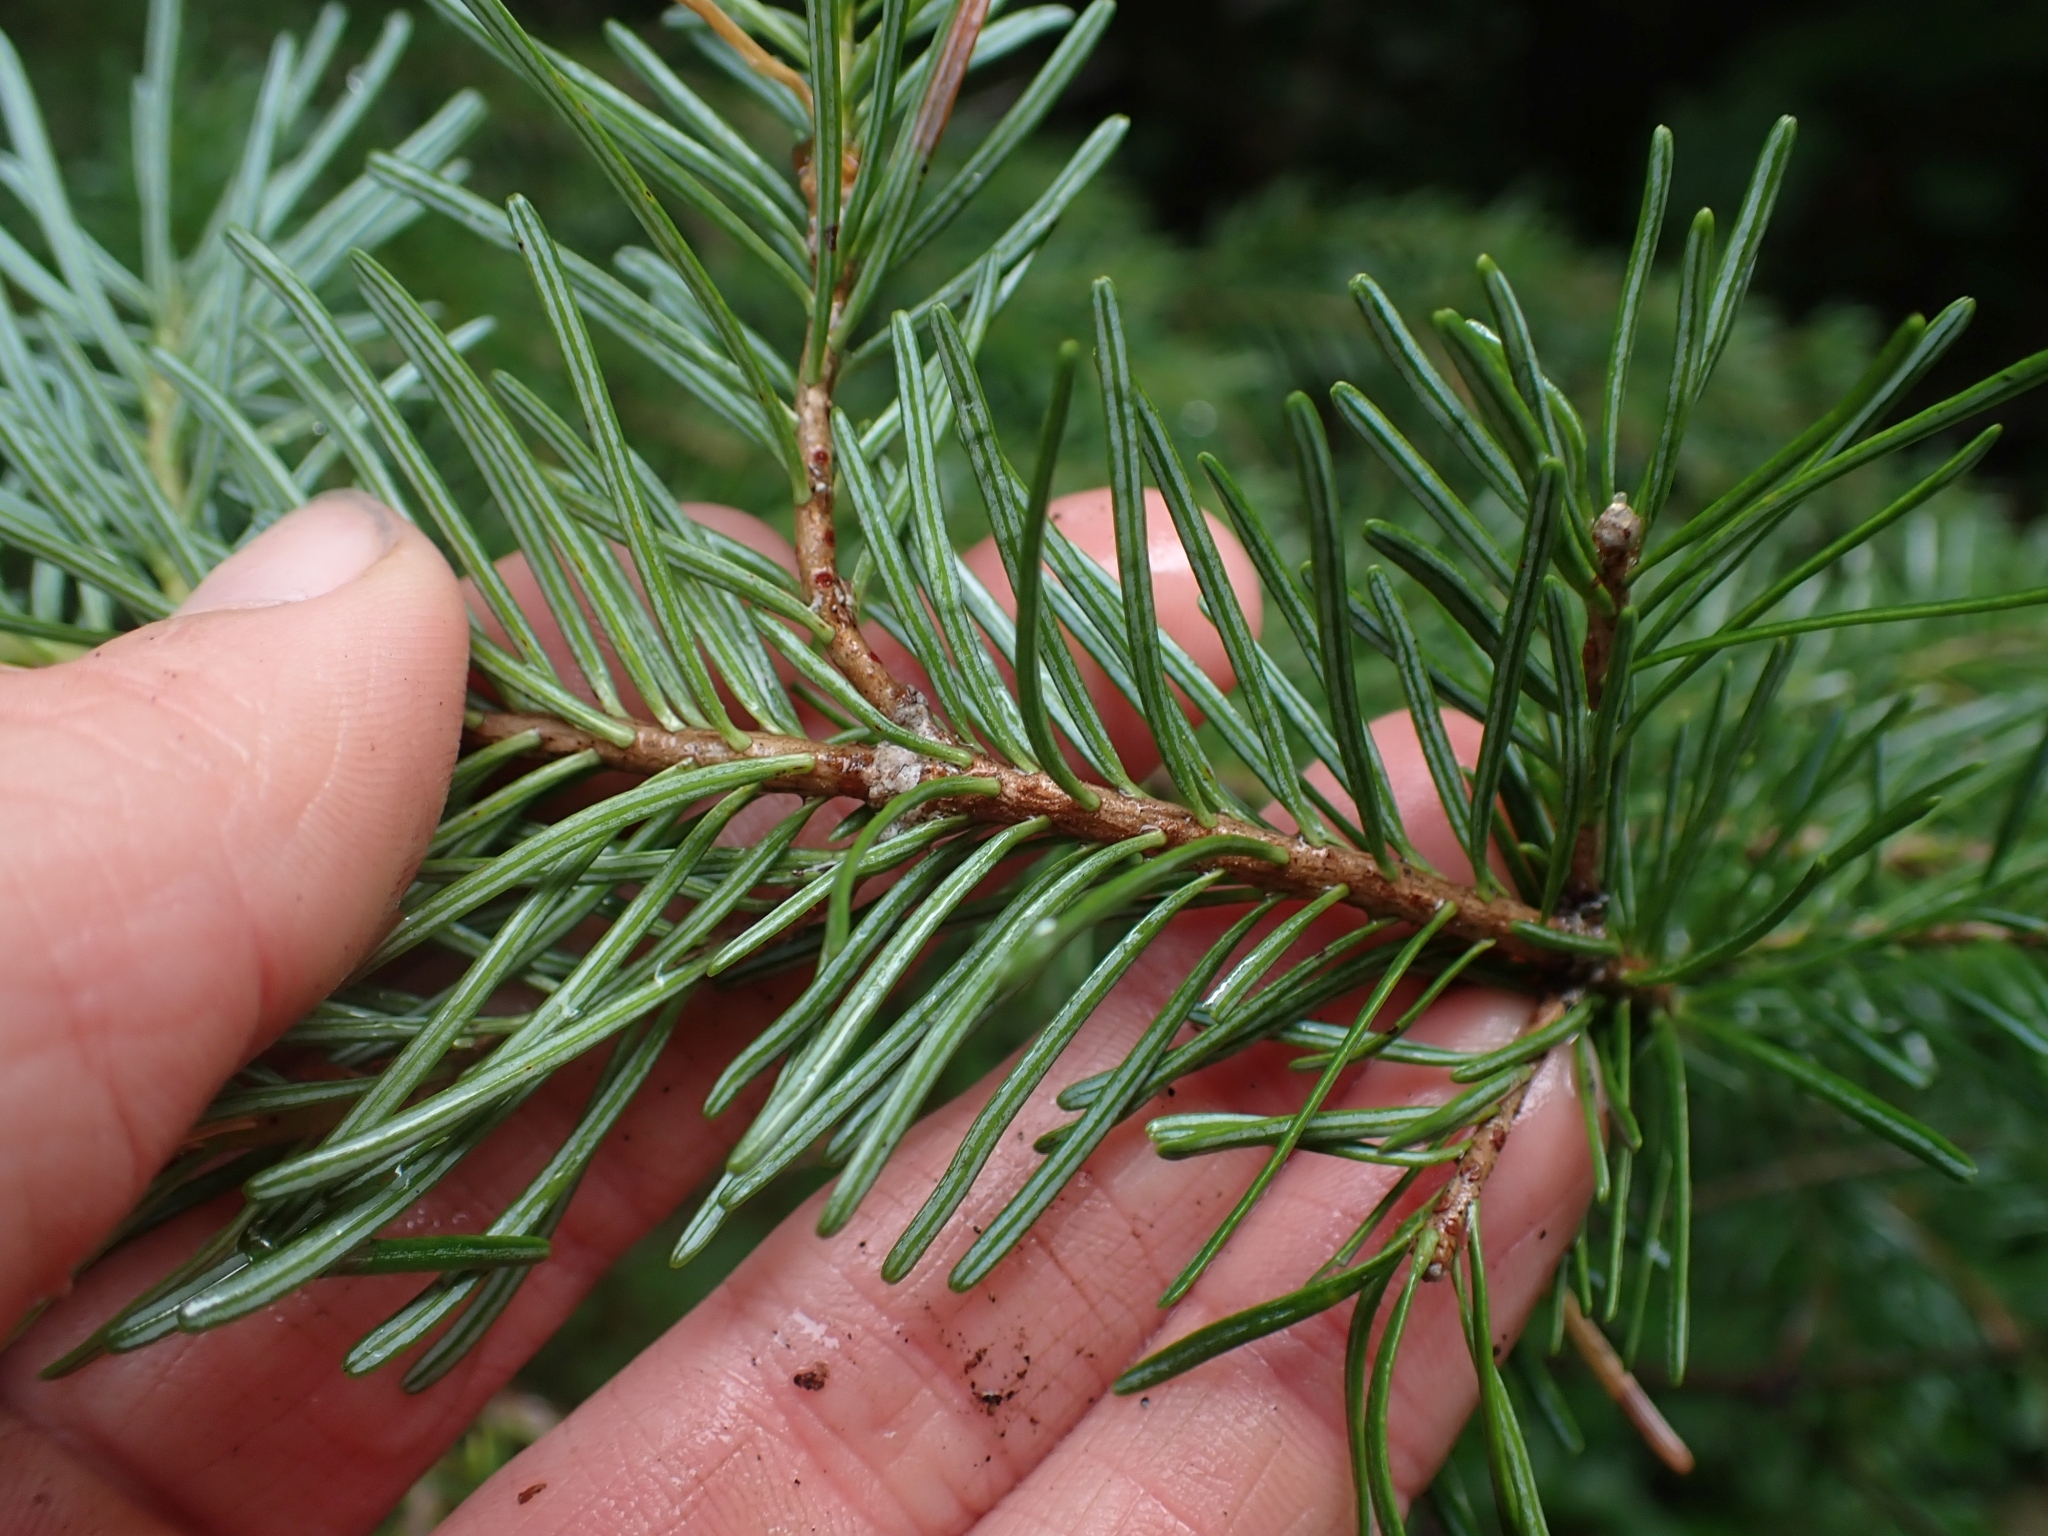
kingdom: Plantae
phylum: Tracheophyta
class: Pinopsida
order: Pinales
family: Pinaceae
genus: Abies
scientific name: Abies lasiocarpa
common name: Subalpine fir
